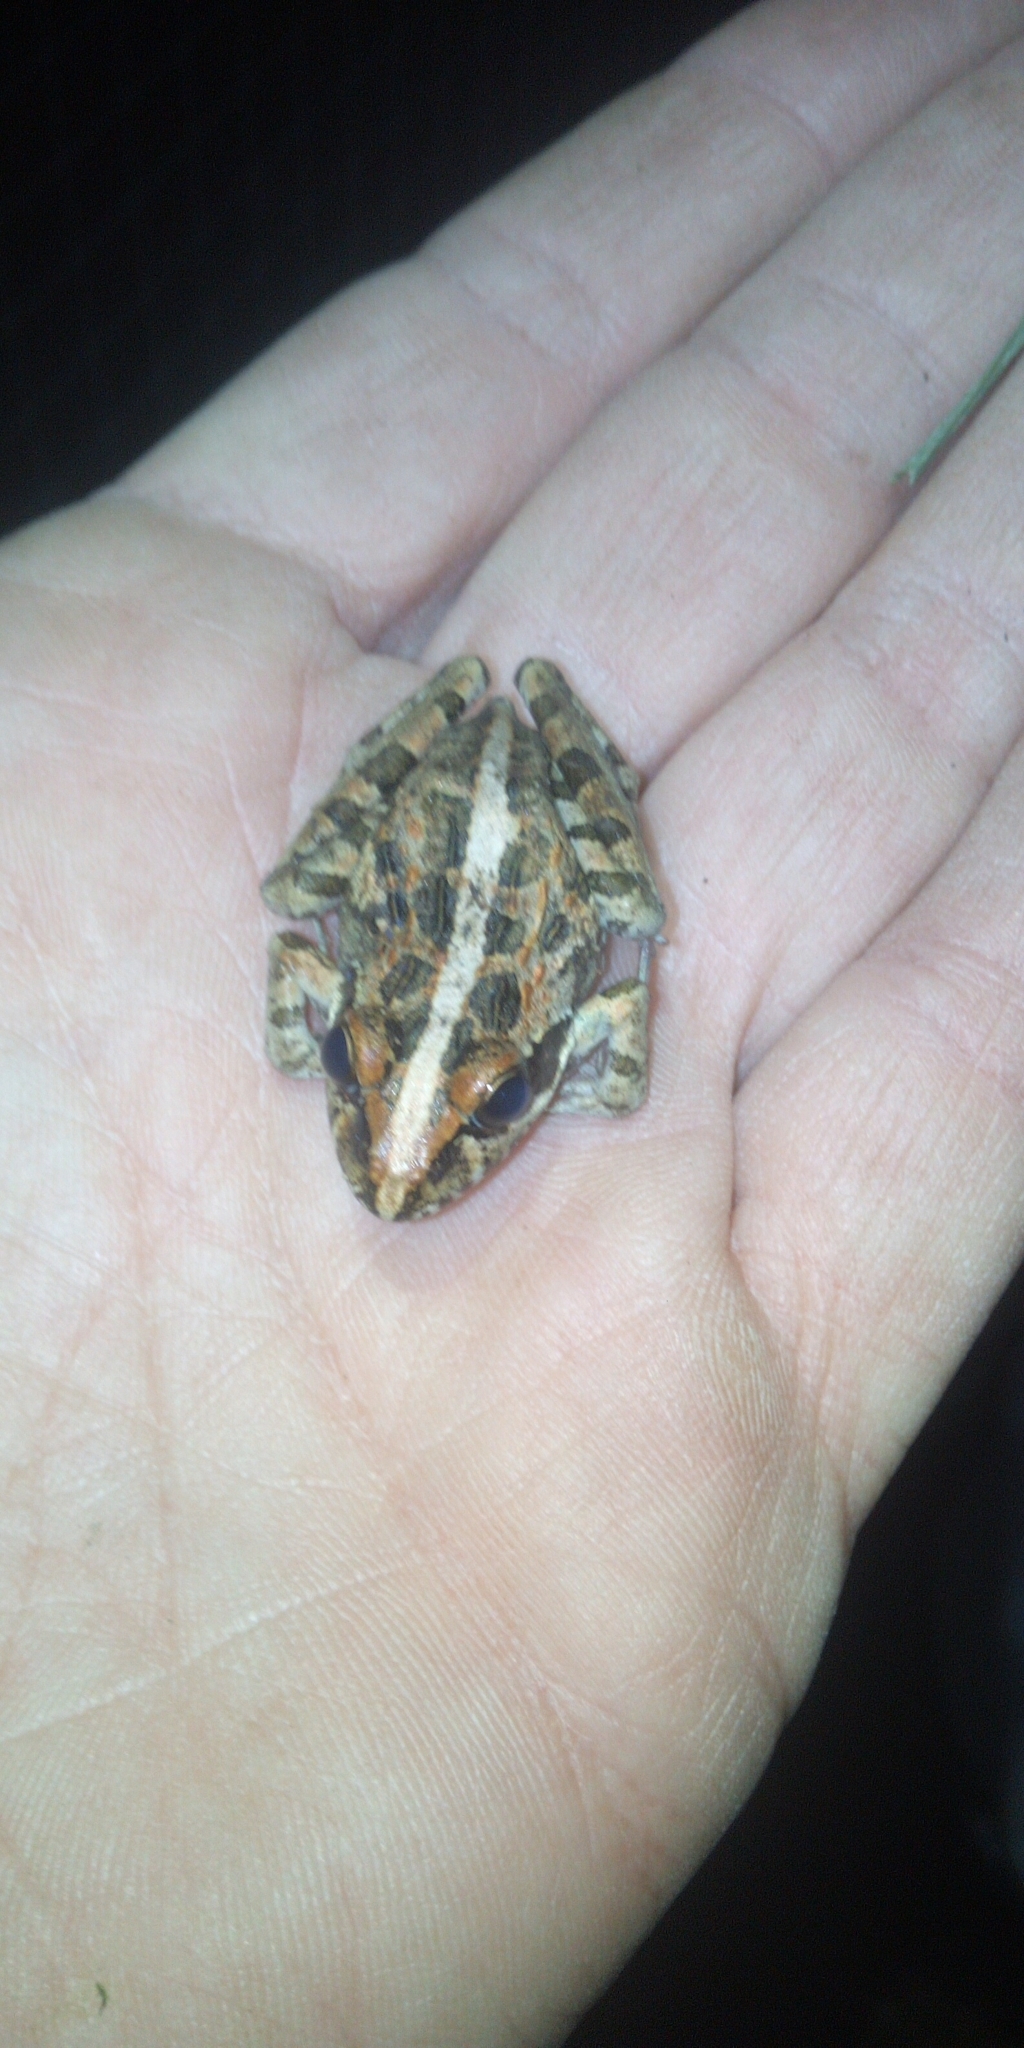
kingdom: Animalia
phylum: Chordata
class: Amphibia
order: Anura
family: Pyxicephalidae
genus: Strongylopus
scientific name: Strongylopus grayii
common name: Gray's stream frog
